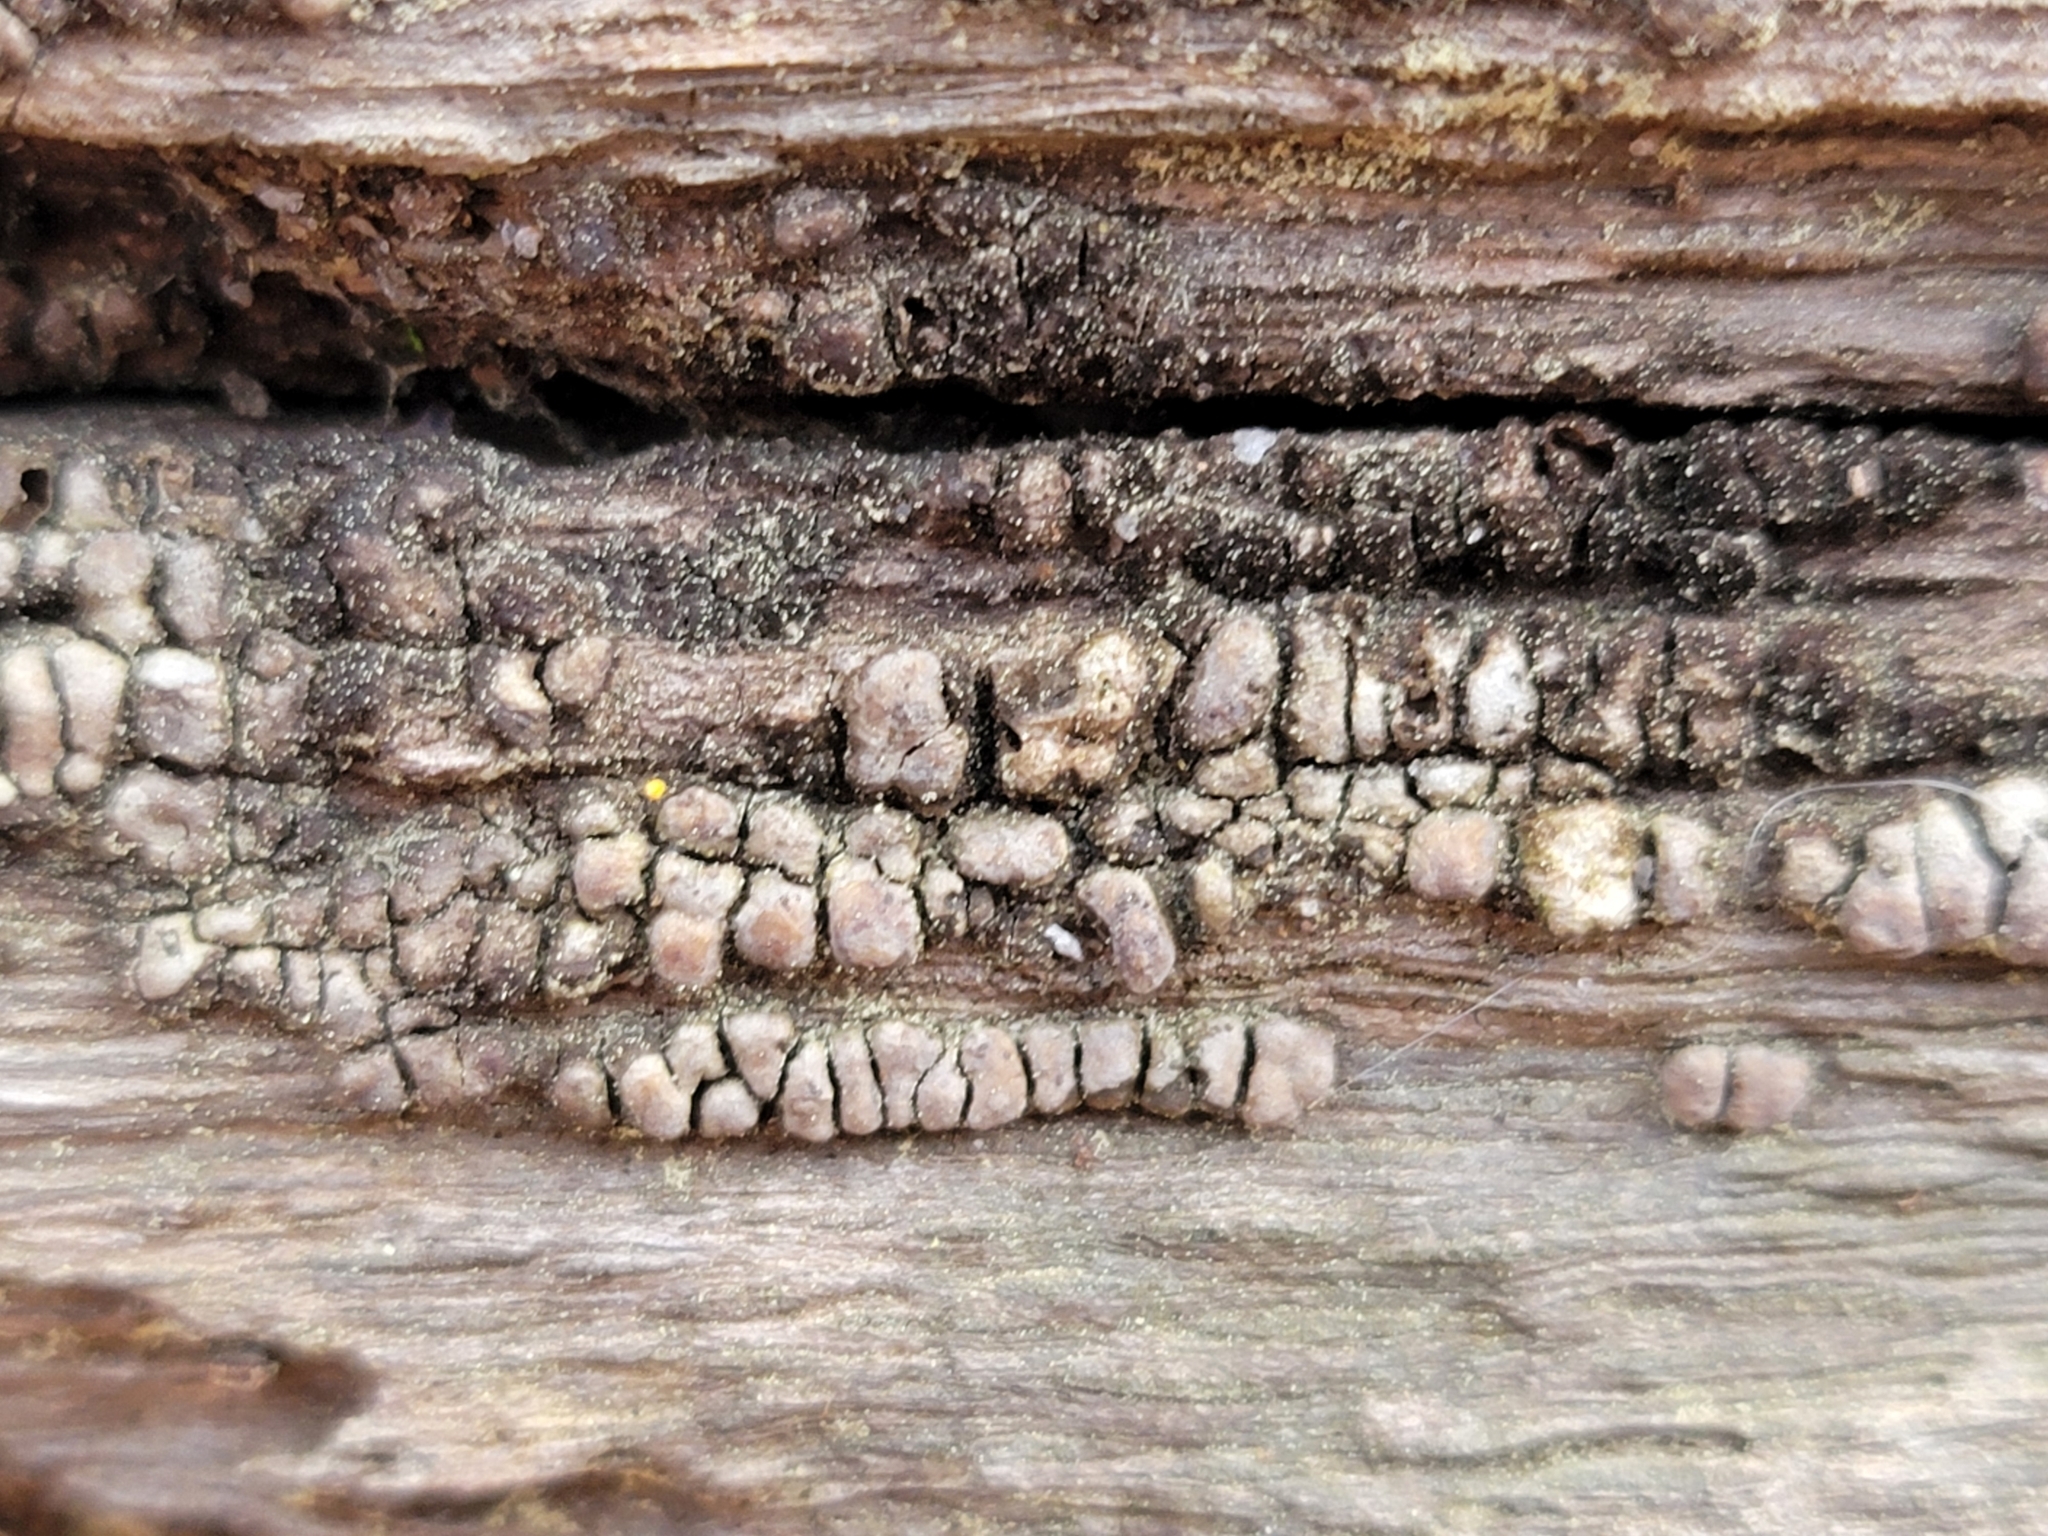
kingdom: Fungi
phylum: Basidiomycota
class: Agaricomycetes
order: Russulales
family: Stereaceae
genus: Xylobolus
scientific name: Xylobolus frustulatus
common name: Ceramic parchment
